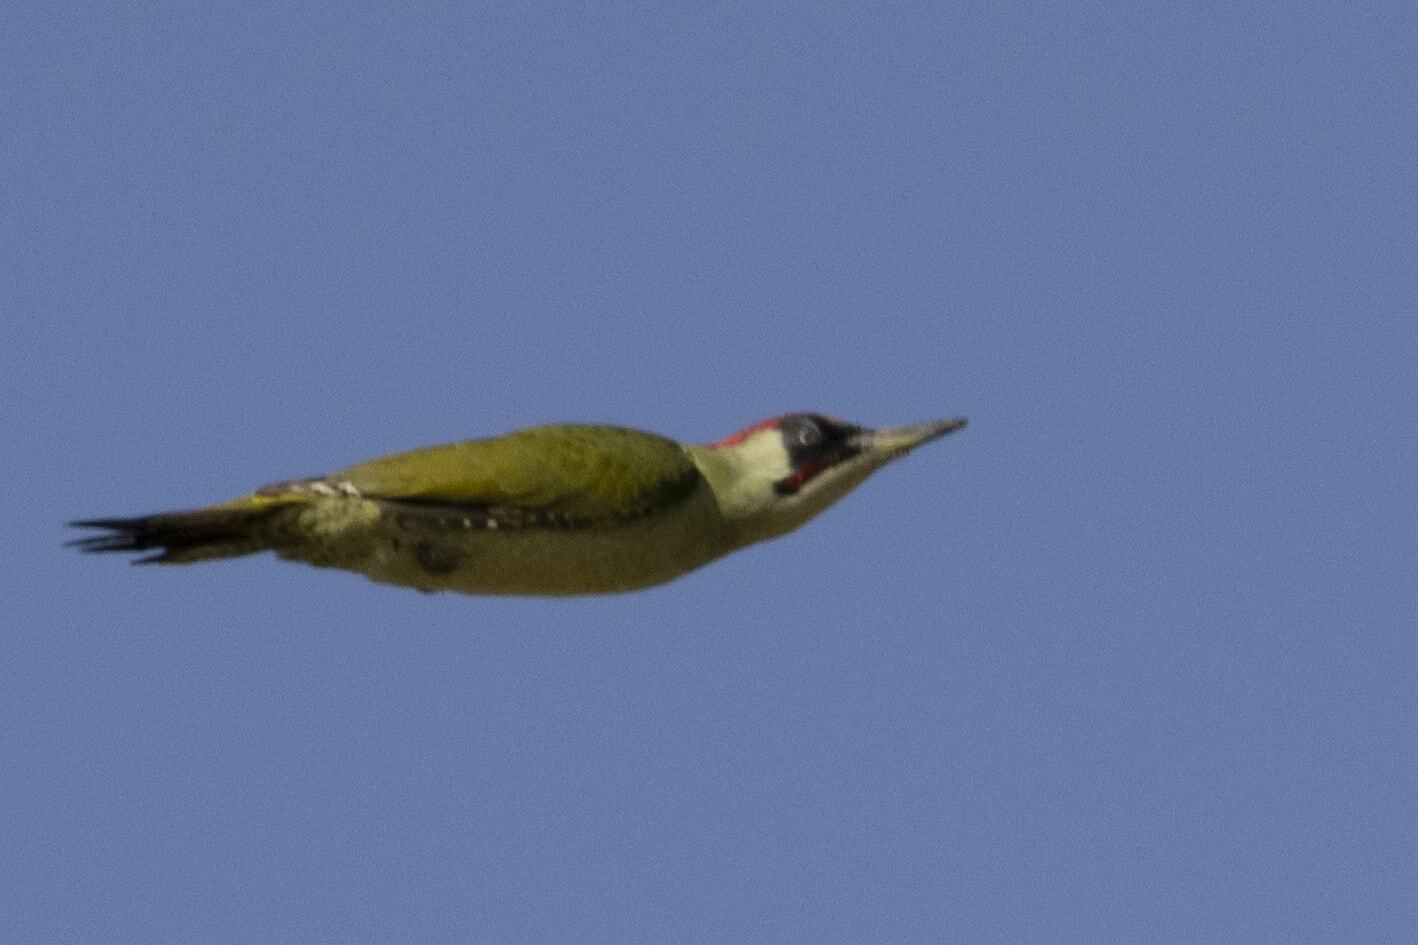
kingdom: Animalia
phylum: Chordata
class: Aves
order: Piciformes
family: Picidae
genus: Picus
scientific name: Picus viridis
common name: European green woodpecker
